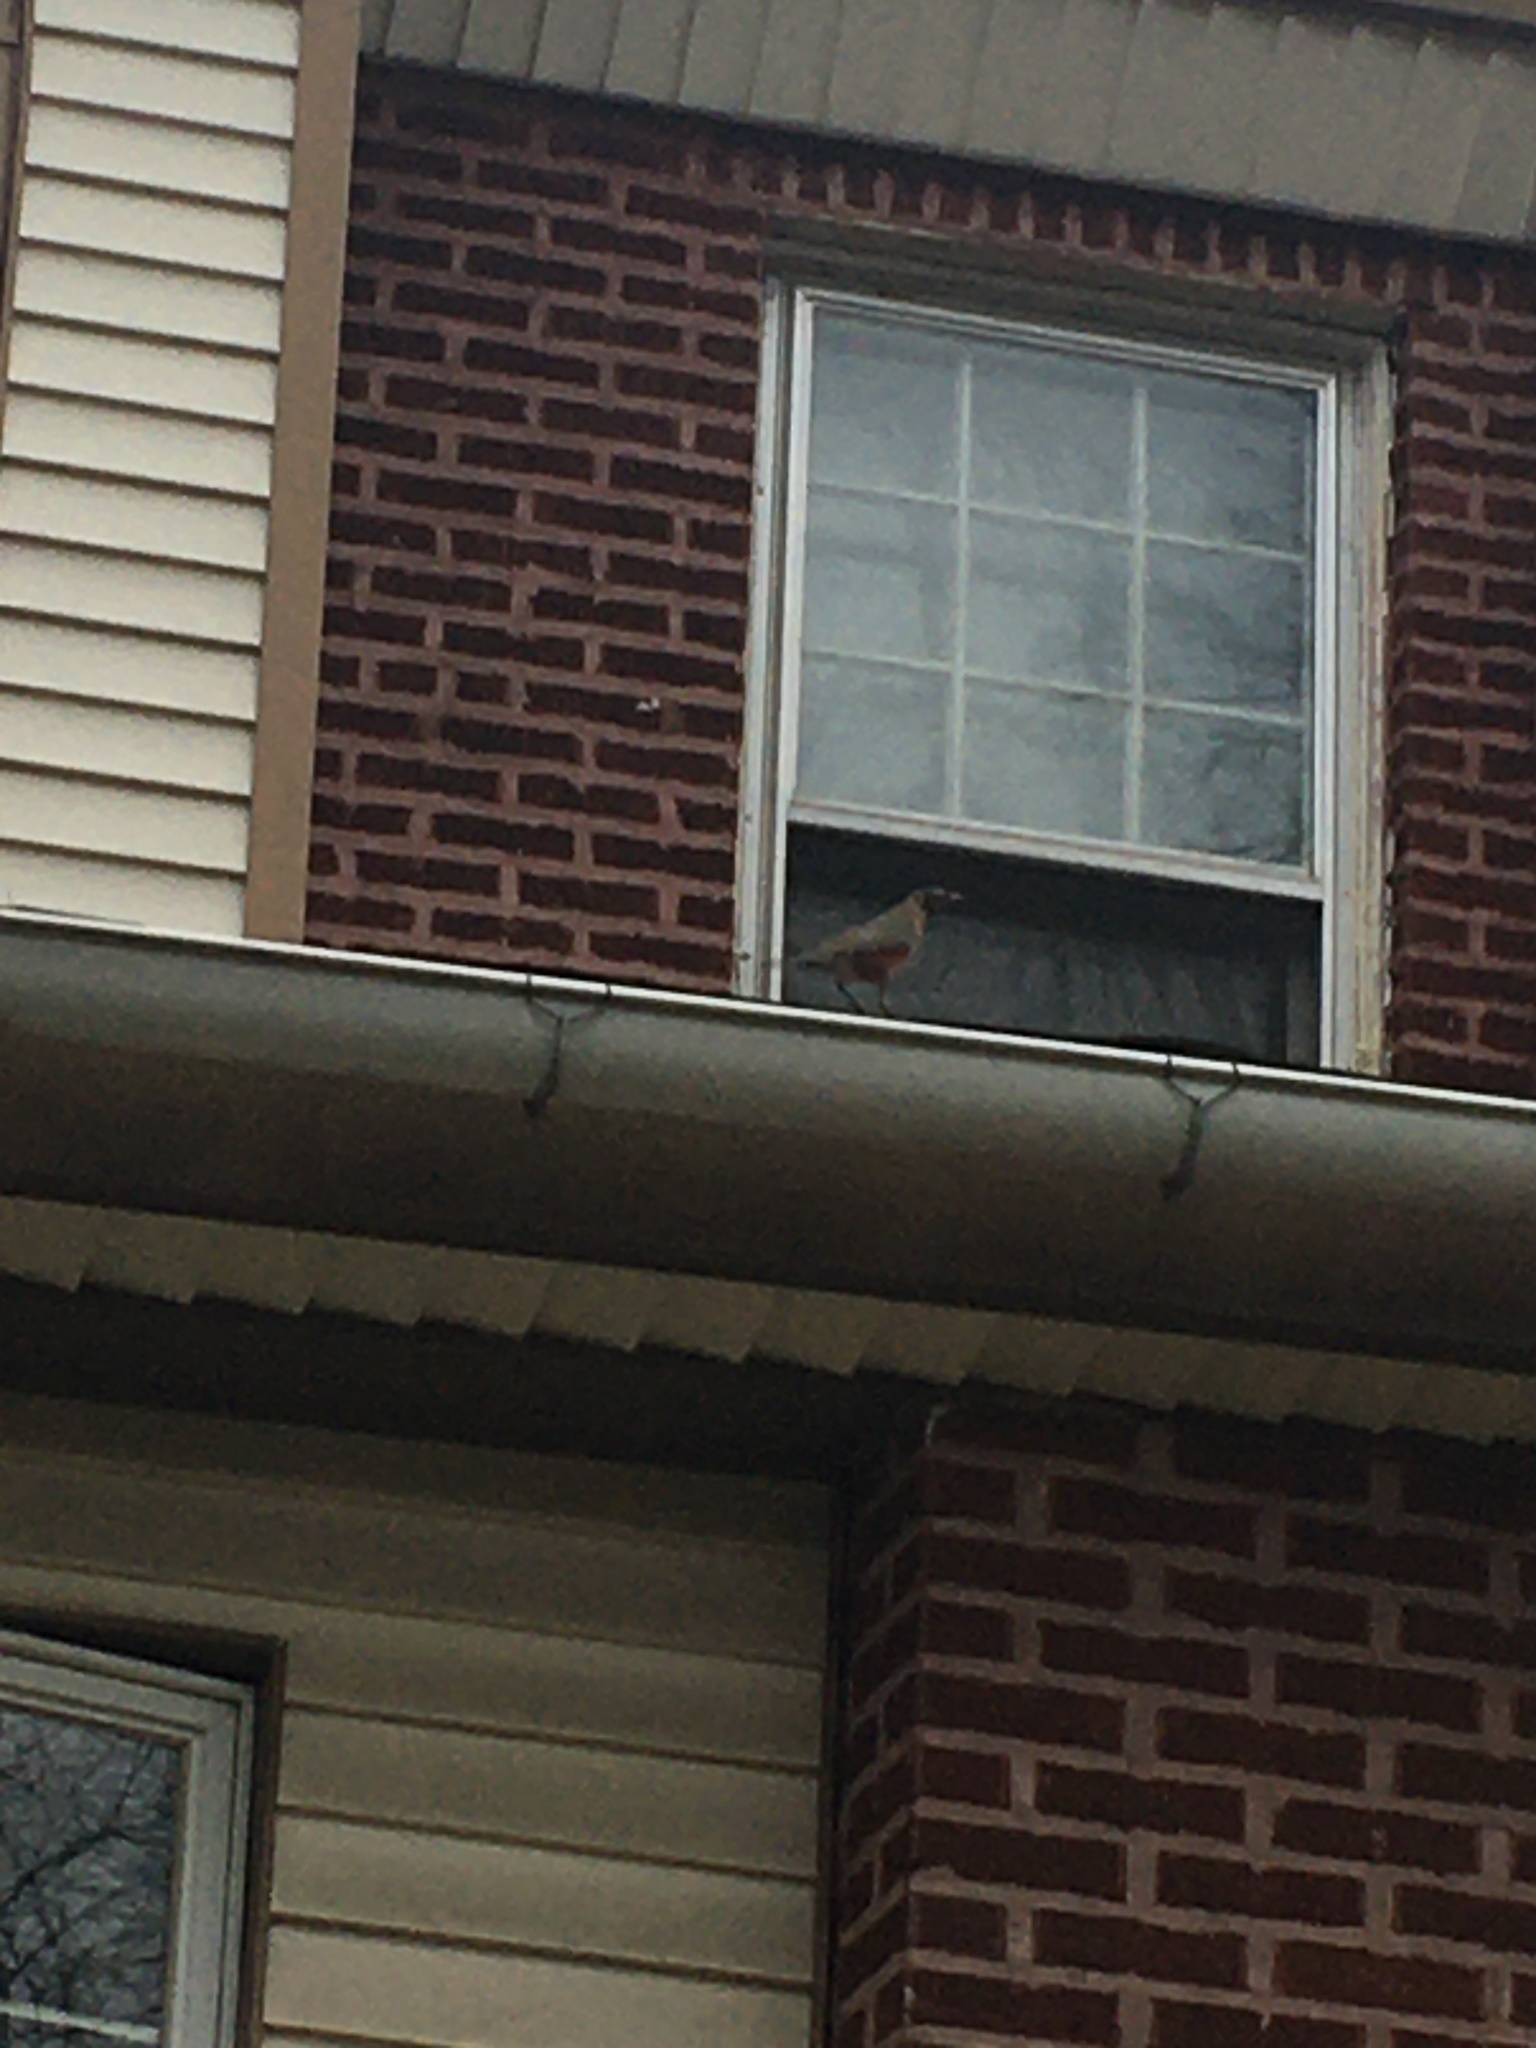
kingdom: Animalia
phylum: Chordata
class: Aves
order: Passeriformes
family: Turdidae
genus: Turdus
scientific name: Turdus migratorius
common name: American robin
